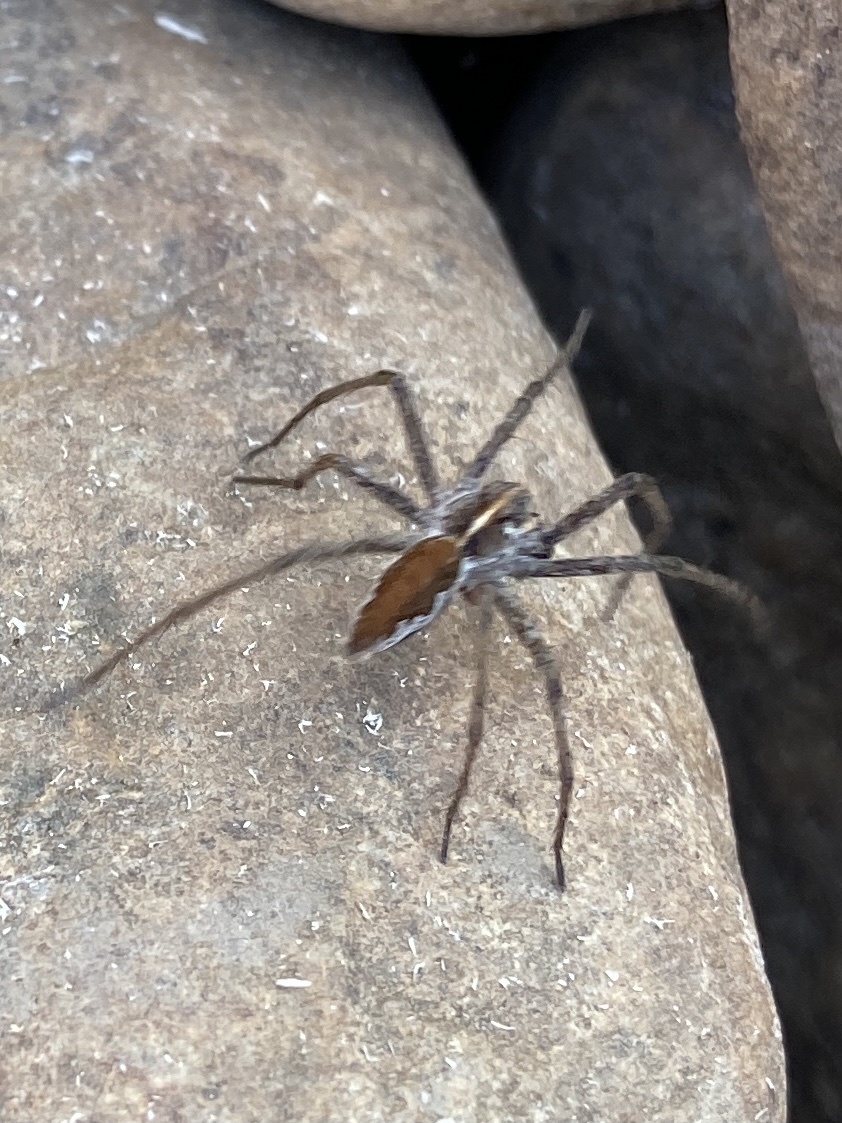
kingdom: Animalia
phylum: Arthropoda
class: Arachnida
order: Araneae
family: Pisauridae
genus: Pisaura
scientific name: Pisaura mirabilis
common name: Tent spider
